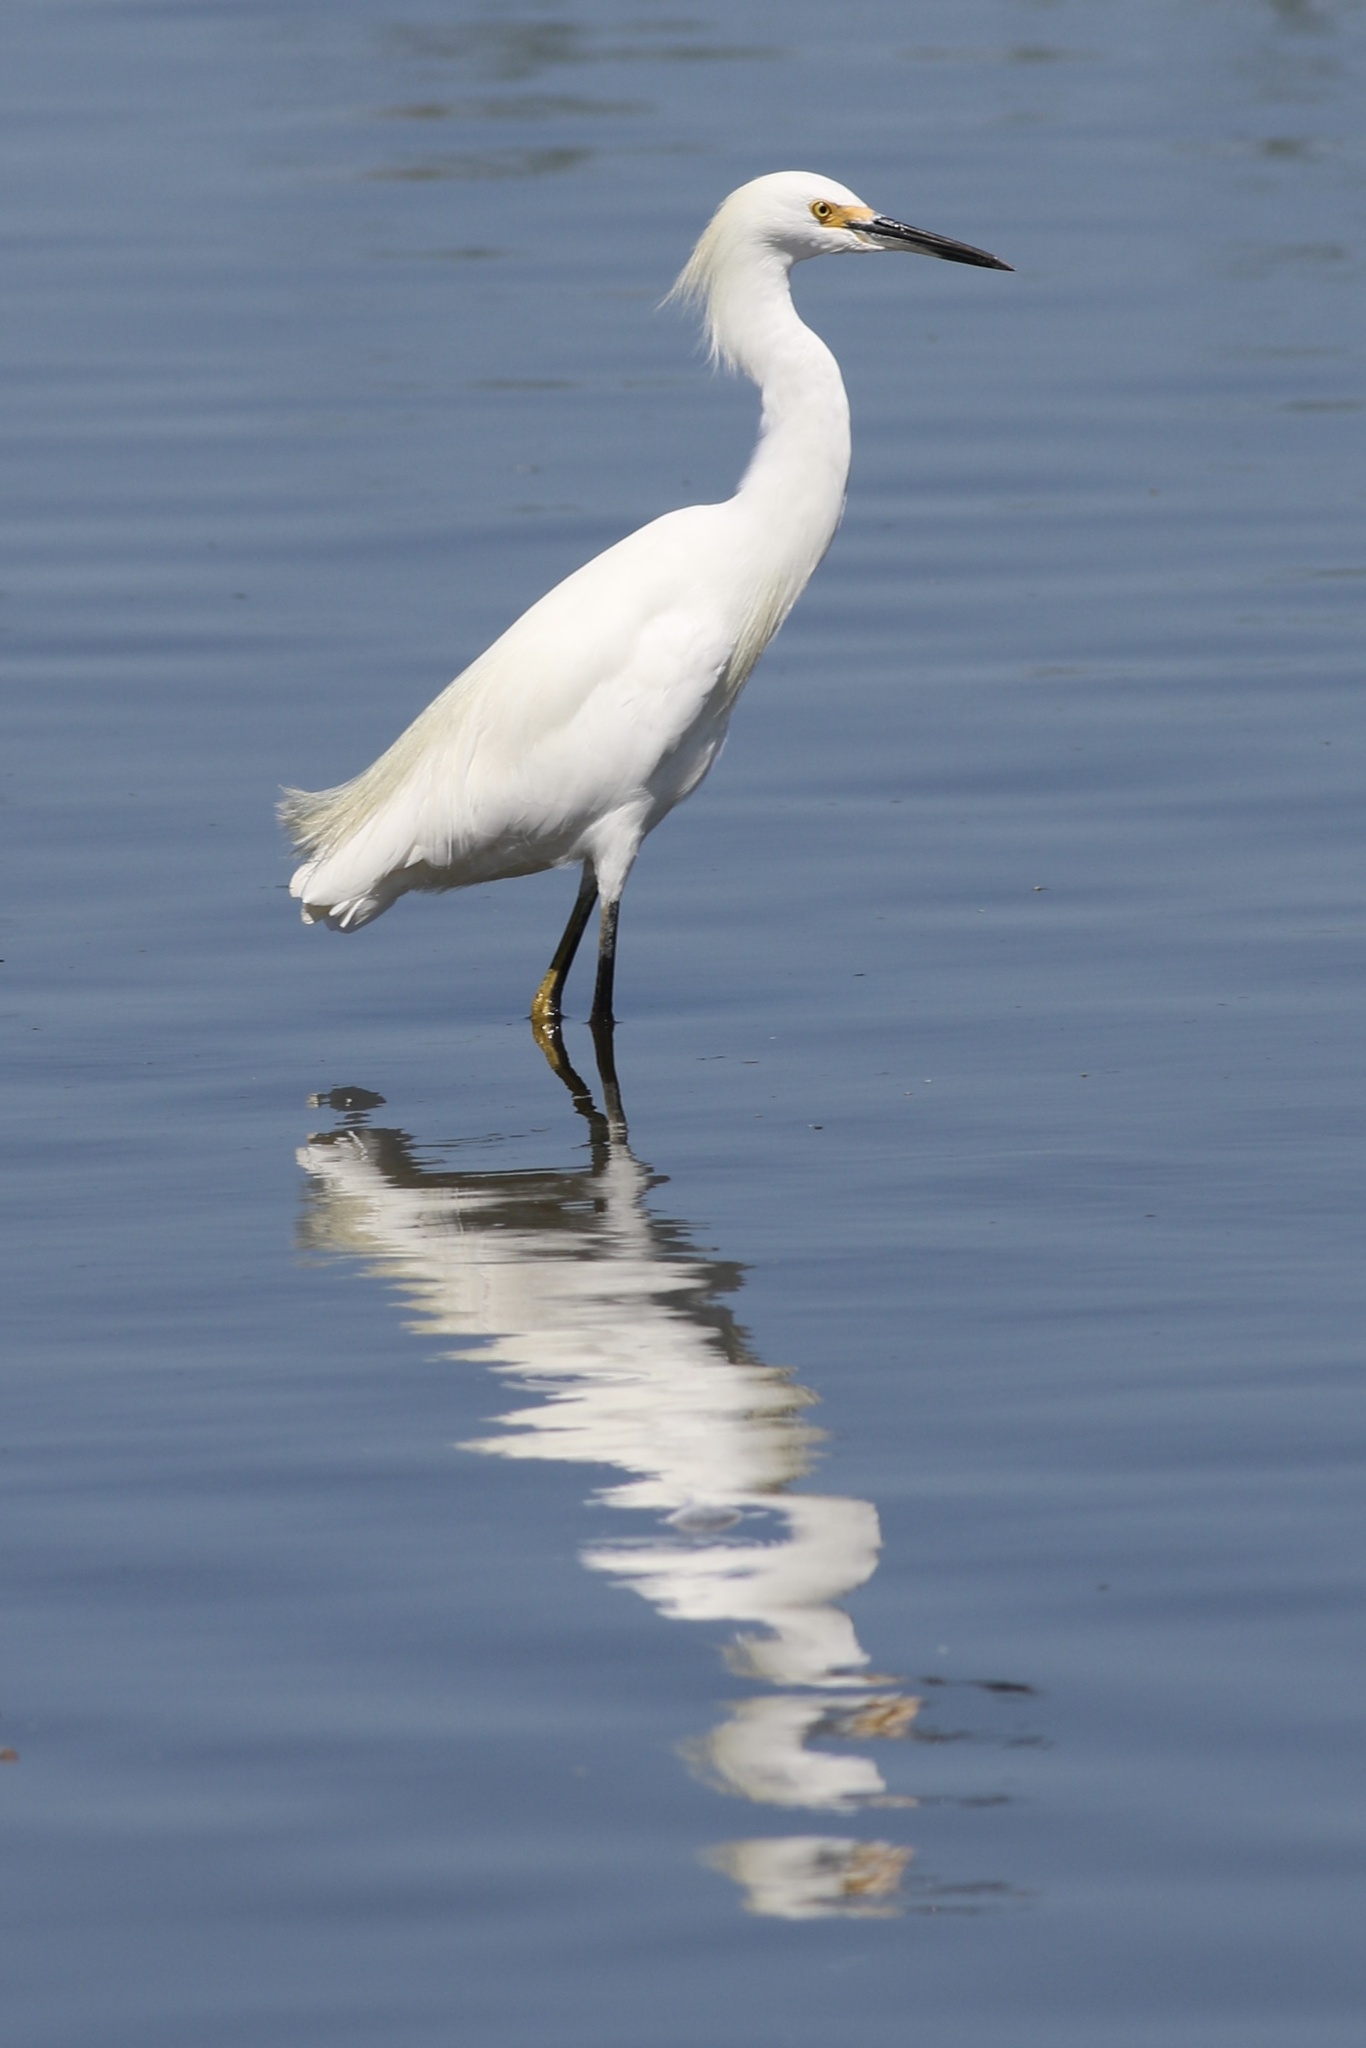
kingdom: Animalia
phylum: Chordata
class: Aves
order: Pelecaniformes
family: Ardeidae
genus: Egretta
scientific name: Egretta thula
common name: Snowy egret
